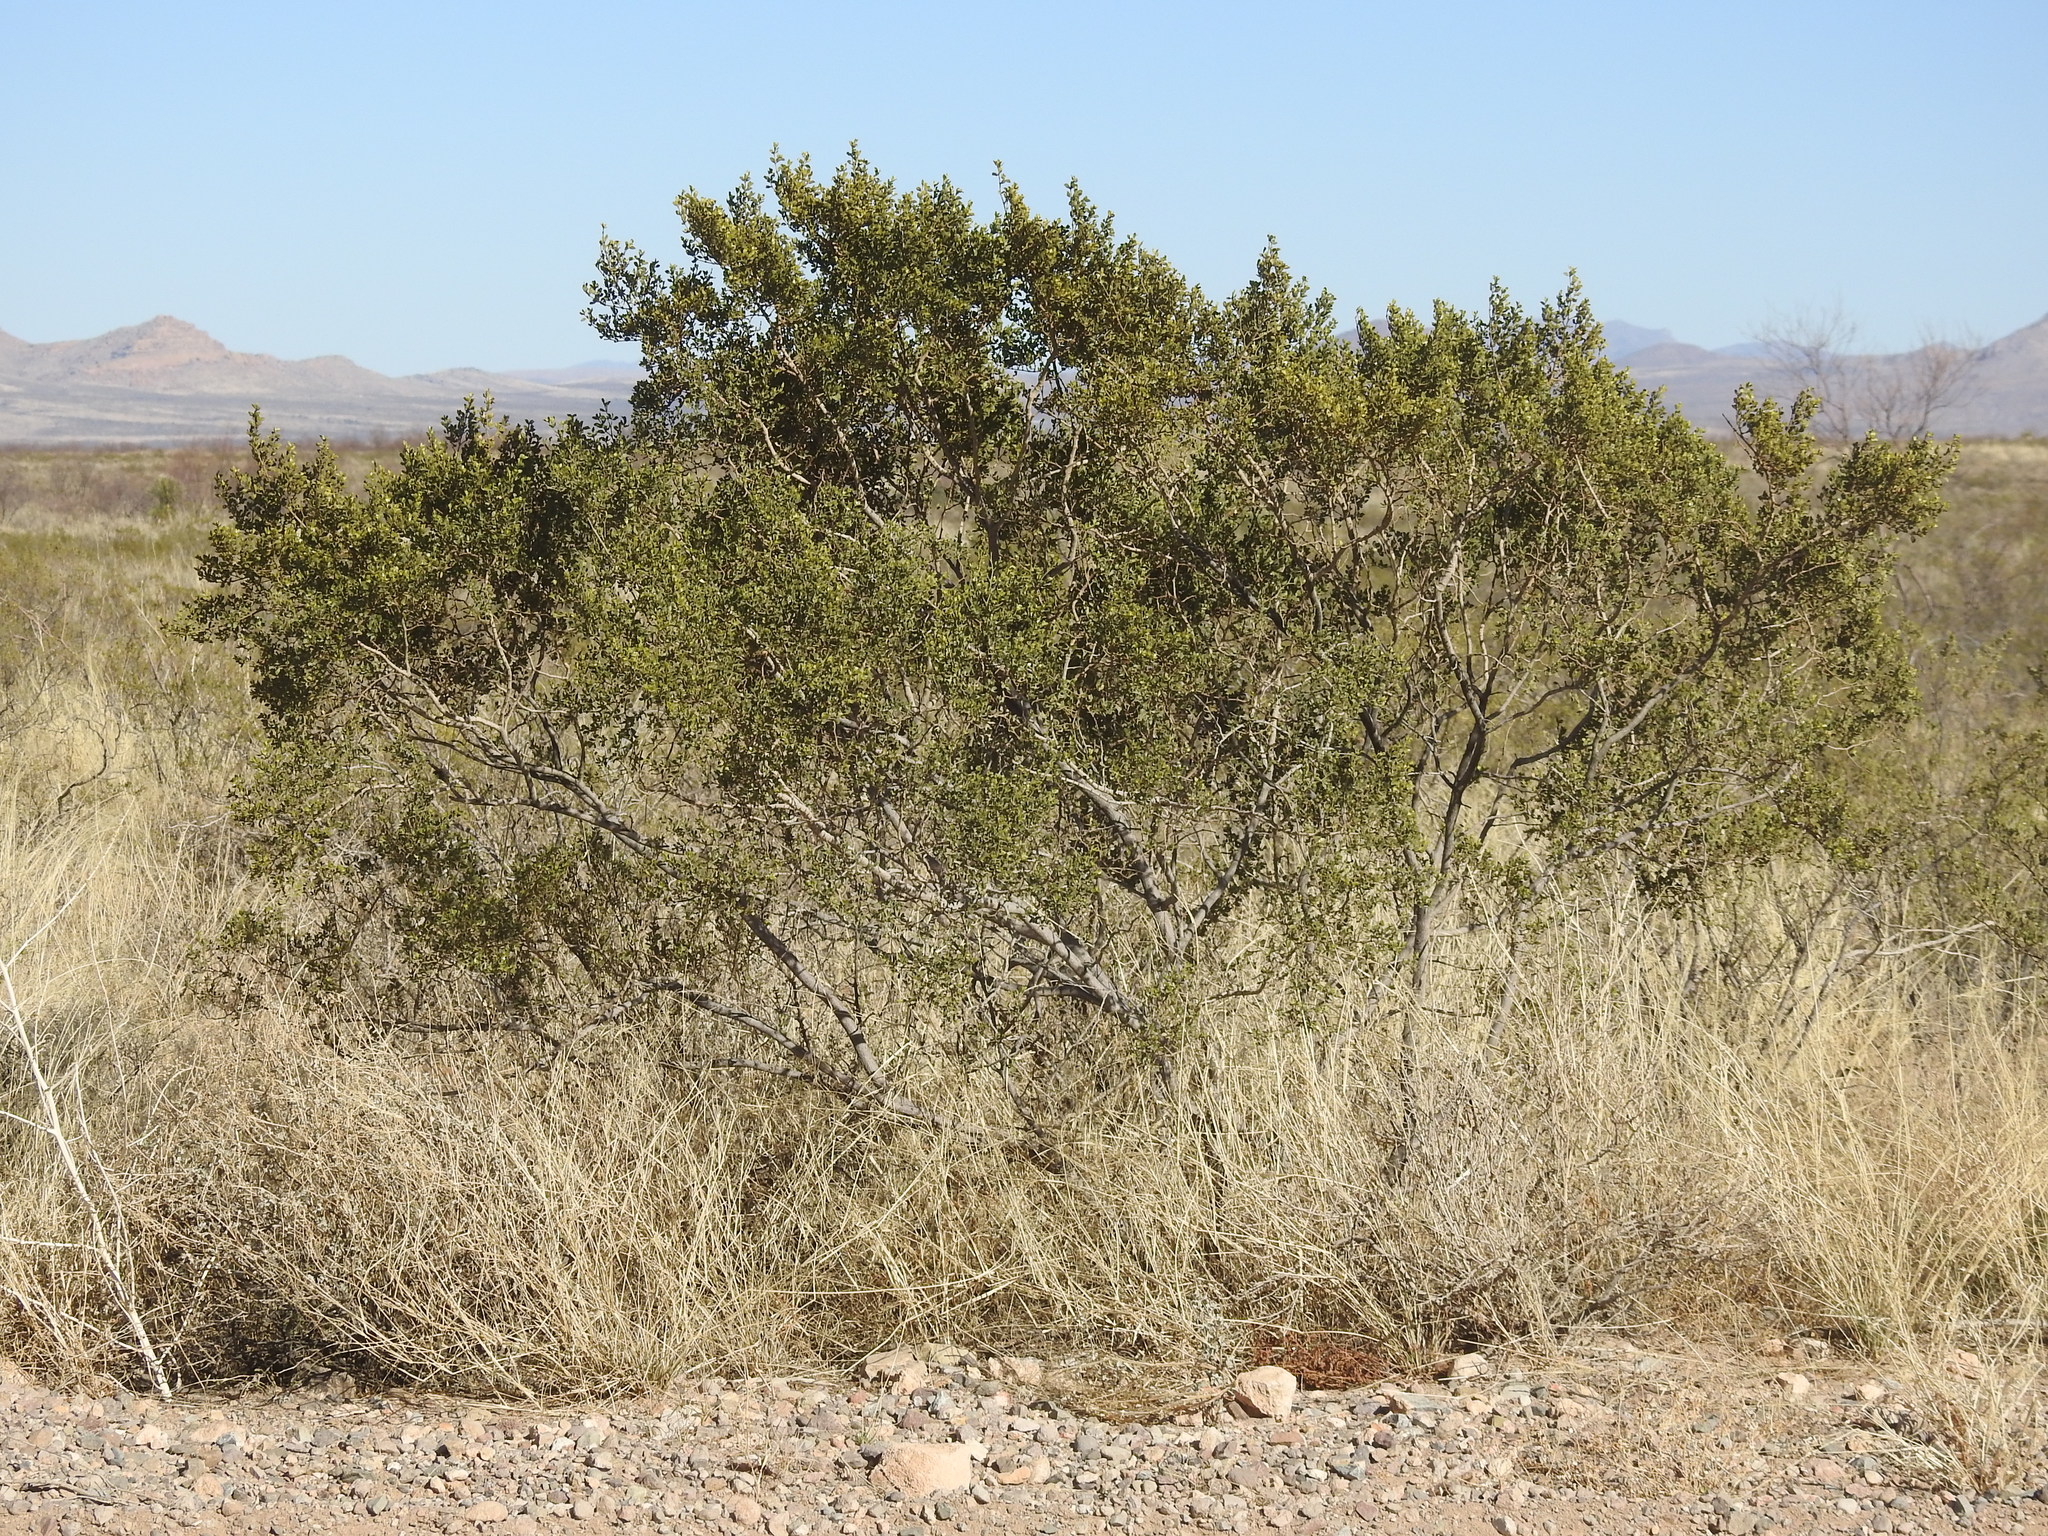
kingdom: Plantae
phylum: Tracheophyta
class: Magnoliopsida
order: Zygophyllales
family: Zygophyllaceae
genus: Larrea
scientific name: Larrea tridentata
